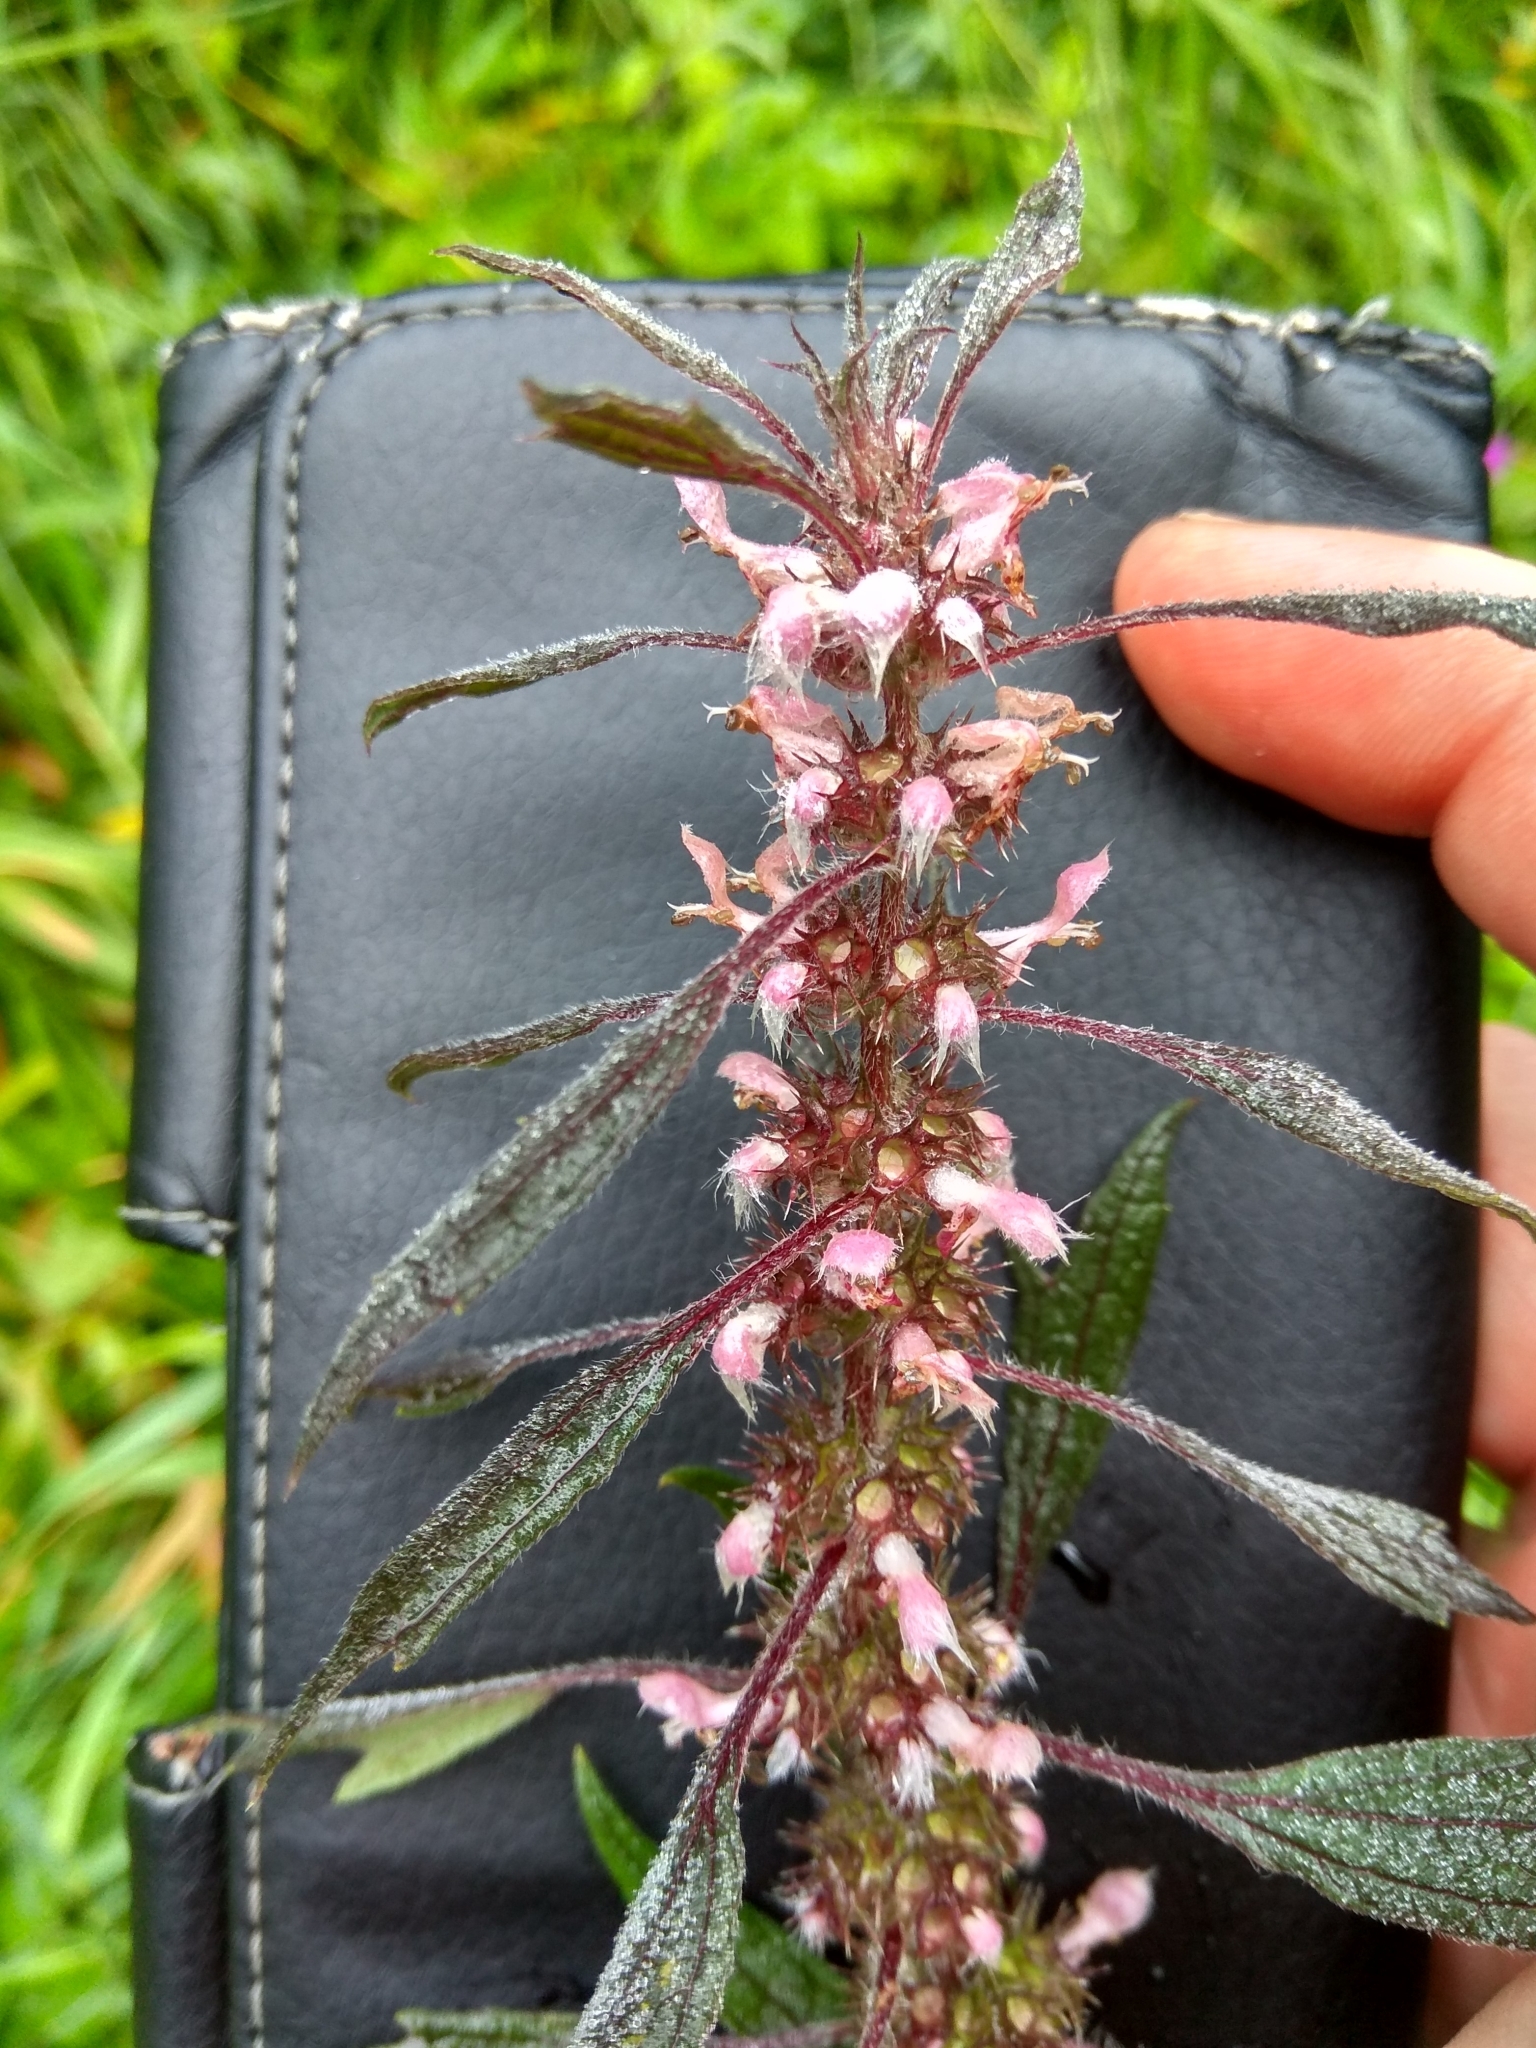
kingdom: Plantae
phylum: Tracheophyta
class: Magnoliopsida
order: Lamiales
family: Lamiaceae
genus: Leonurus
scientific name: Leonurus quinquelobatus
